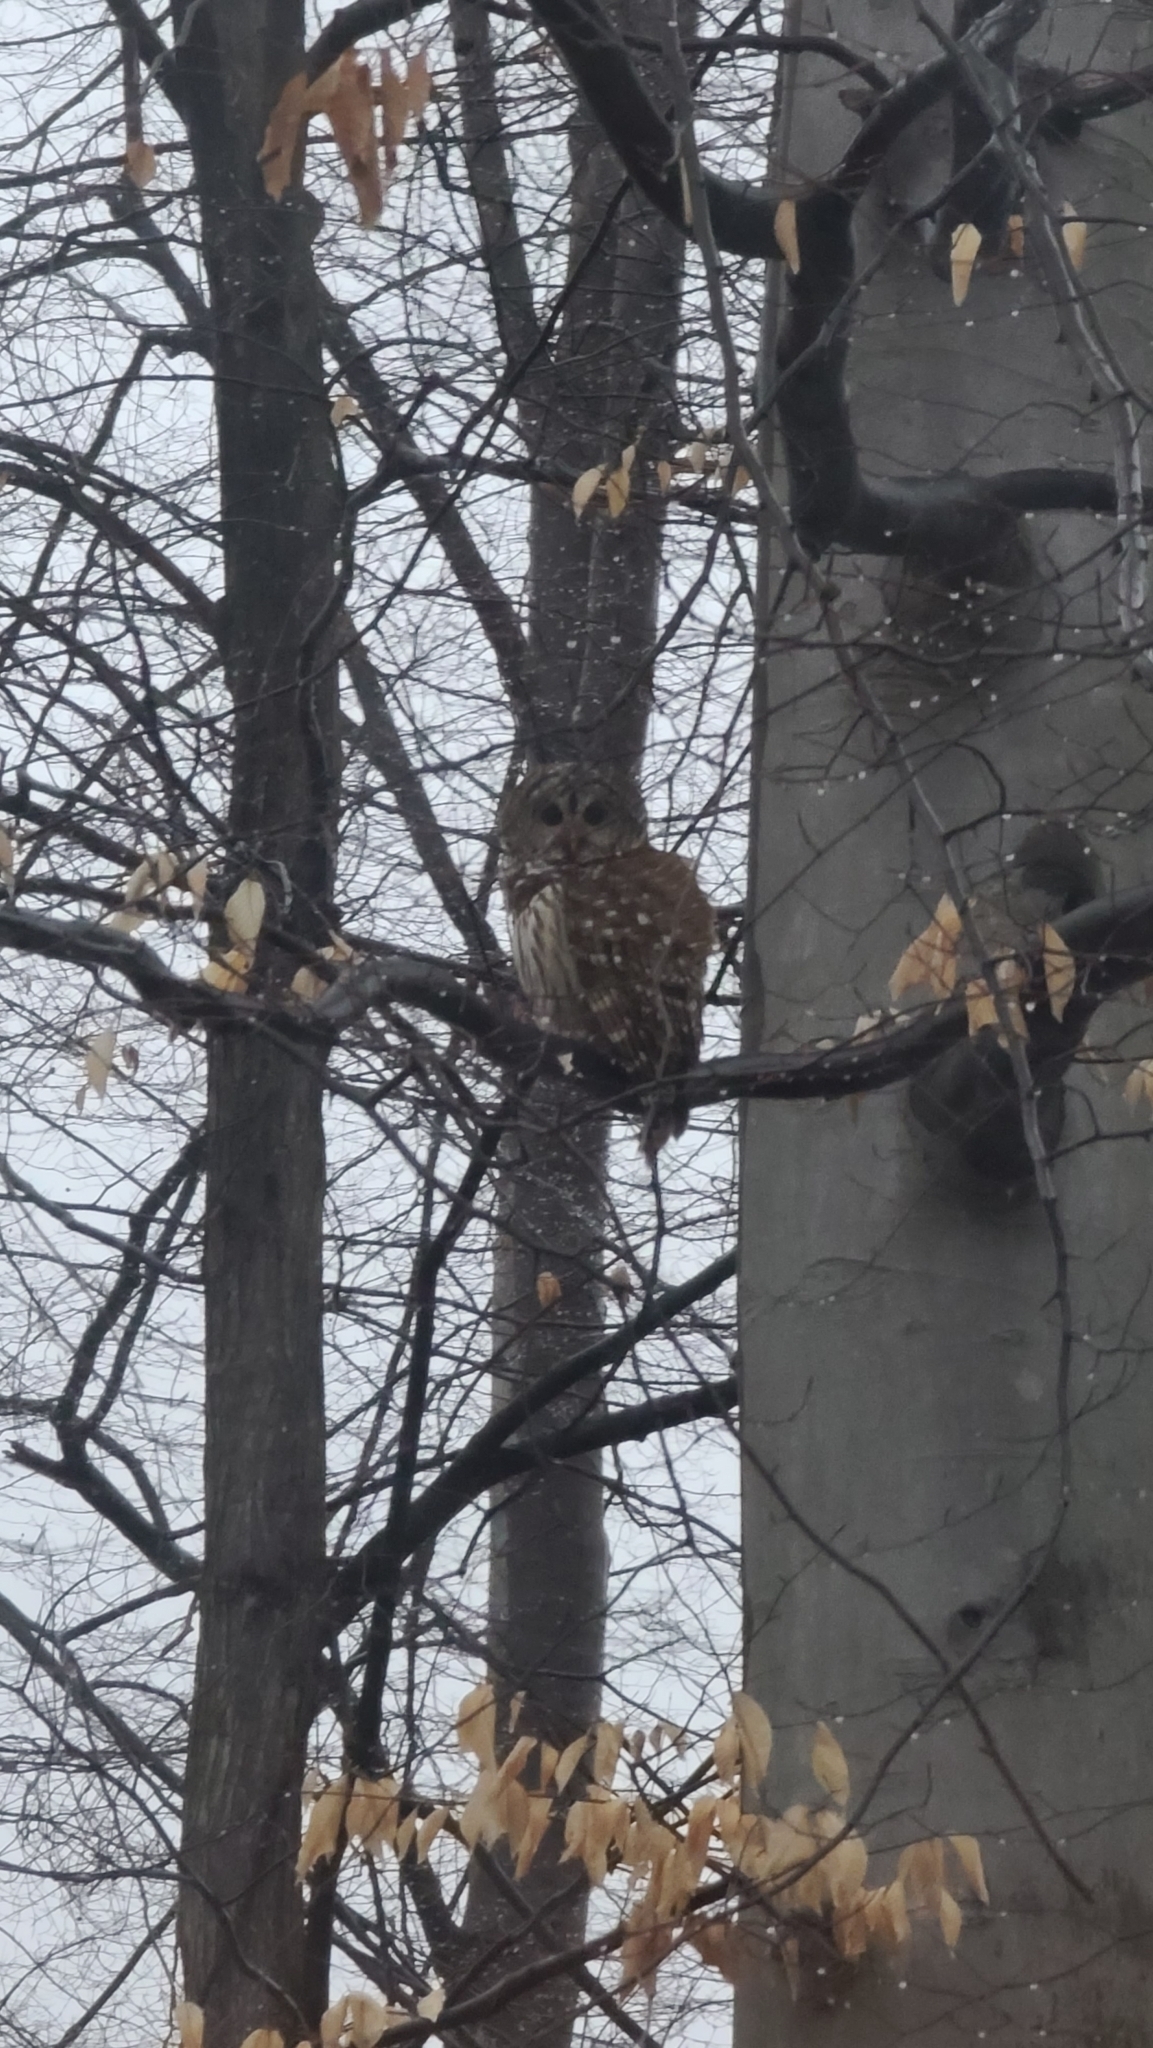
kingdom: Animalia
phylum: Chordata
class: Aves
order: Strigiformes
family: Strigidae
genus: Strix
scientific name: Strix varia
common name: Barred owl
